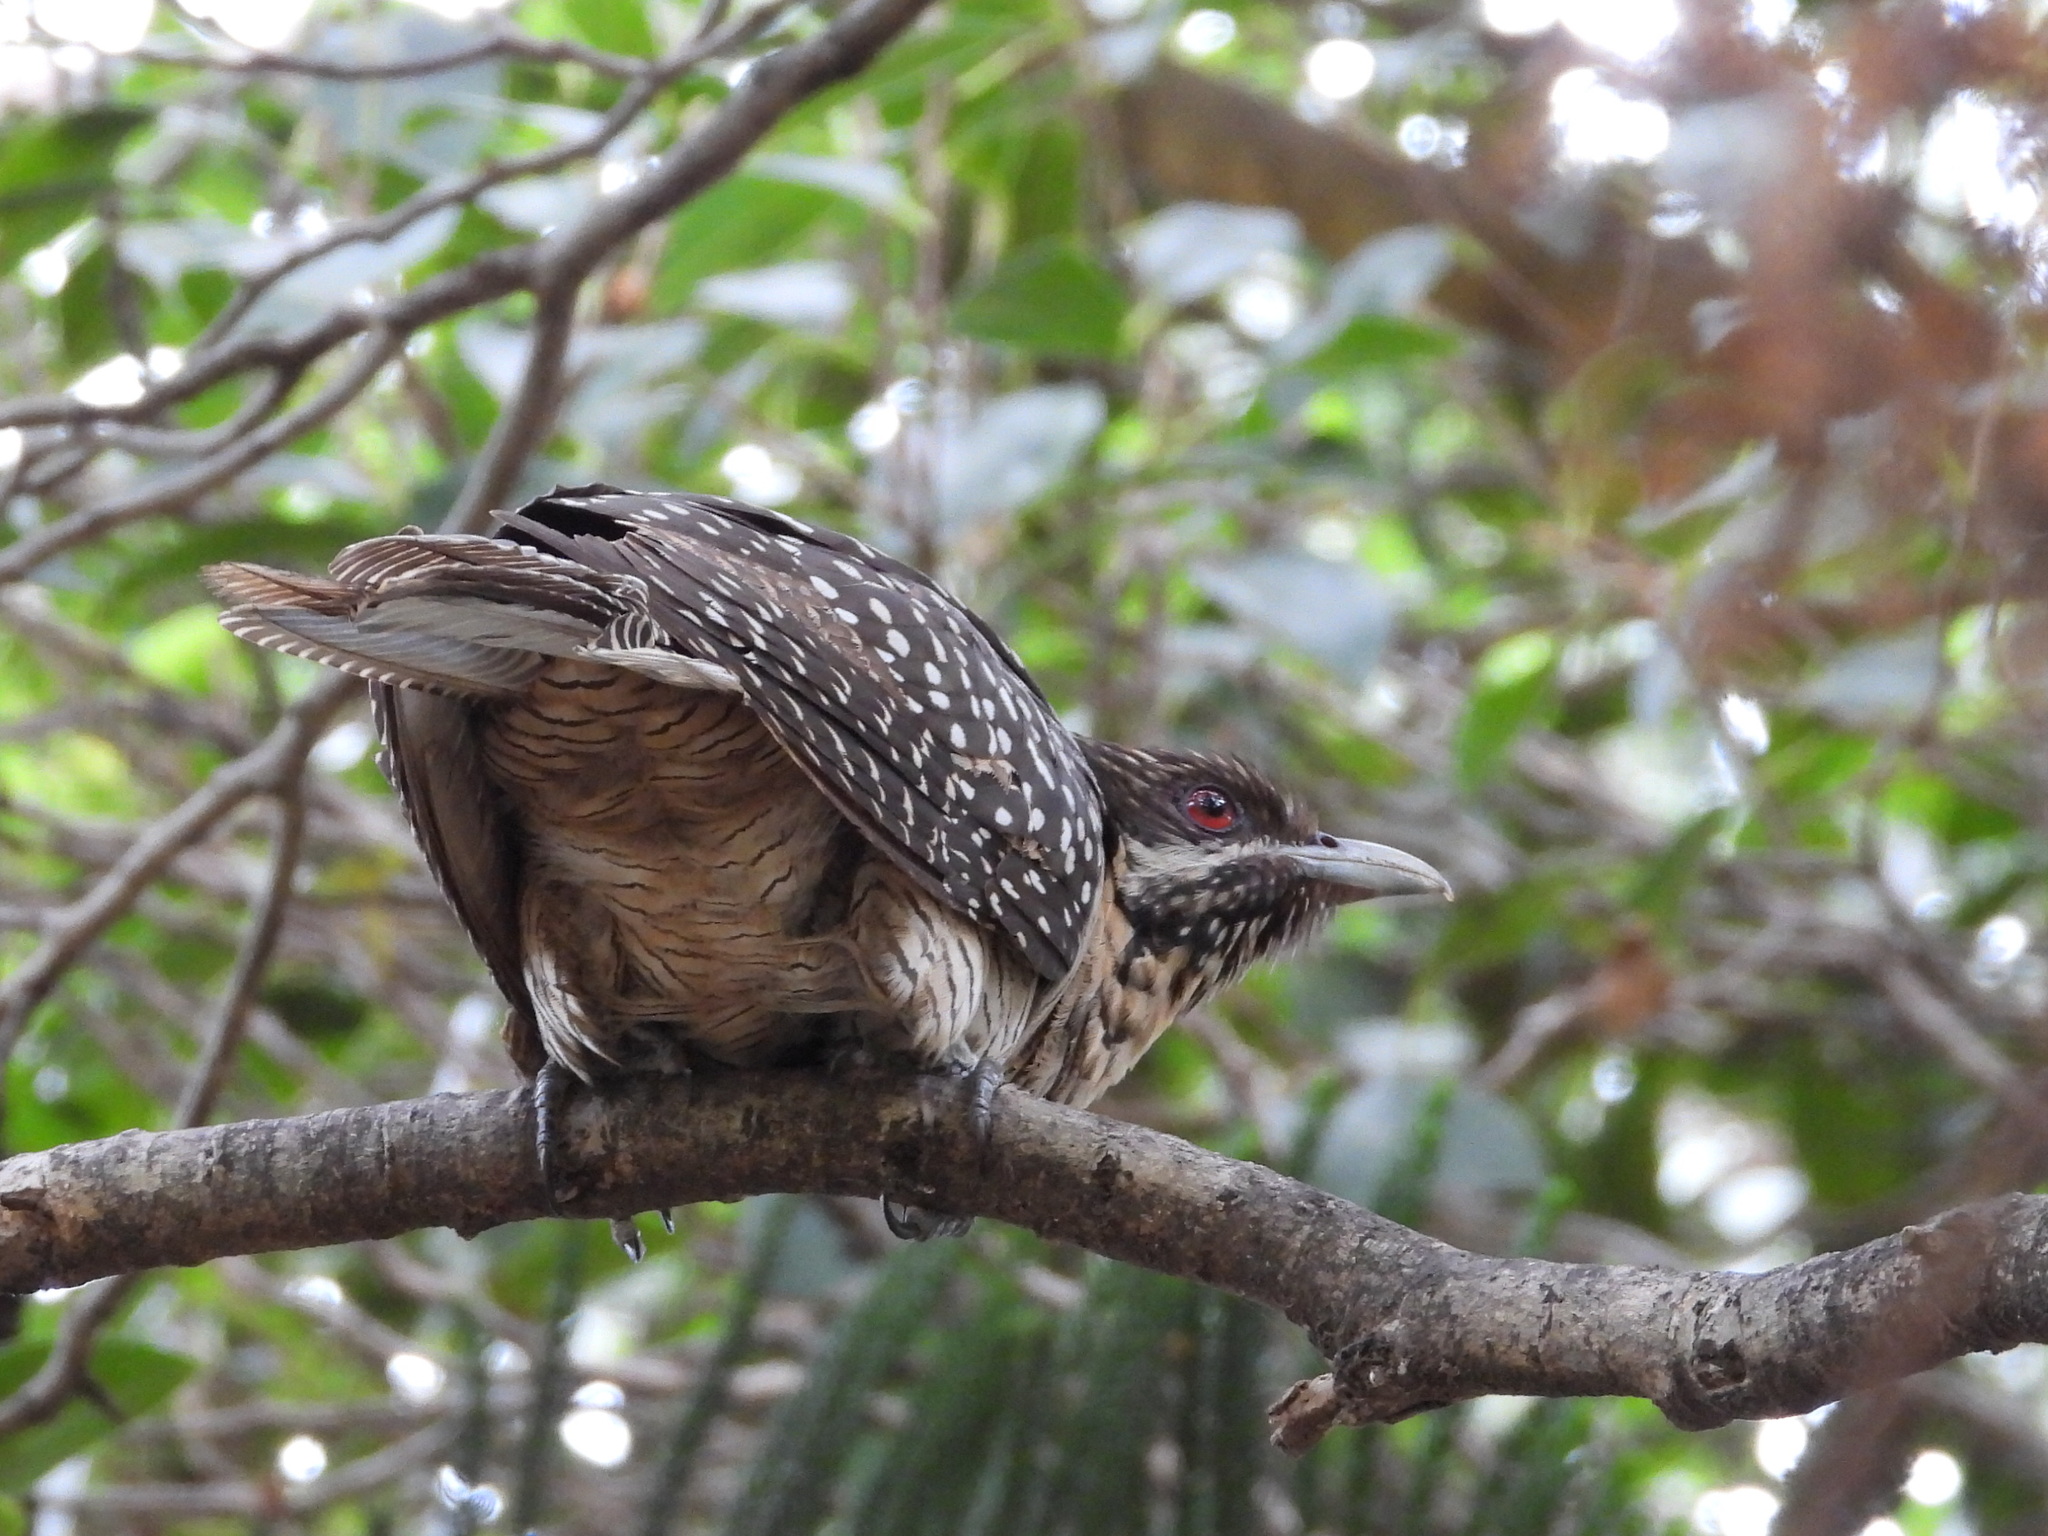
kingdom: Animalia
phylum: Chordata
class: Aves
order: Cuculiformes
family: Cuculidae
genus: Eudynamys
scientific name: Eudynamys orientalis
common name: Pacific koel
